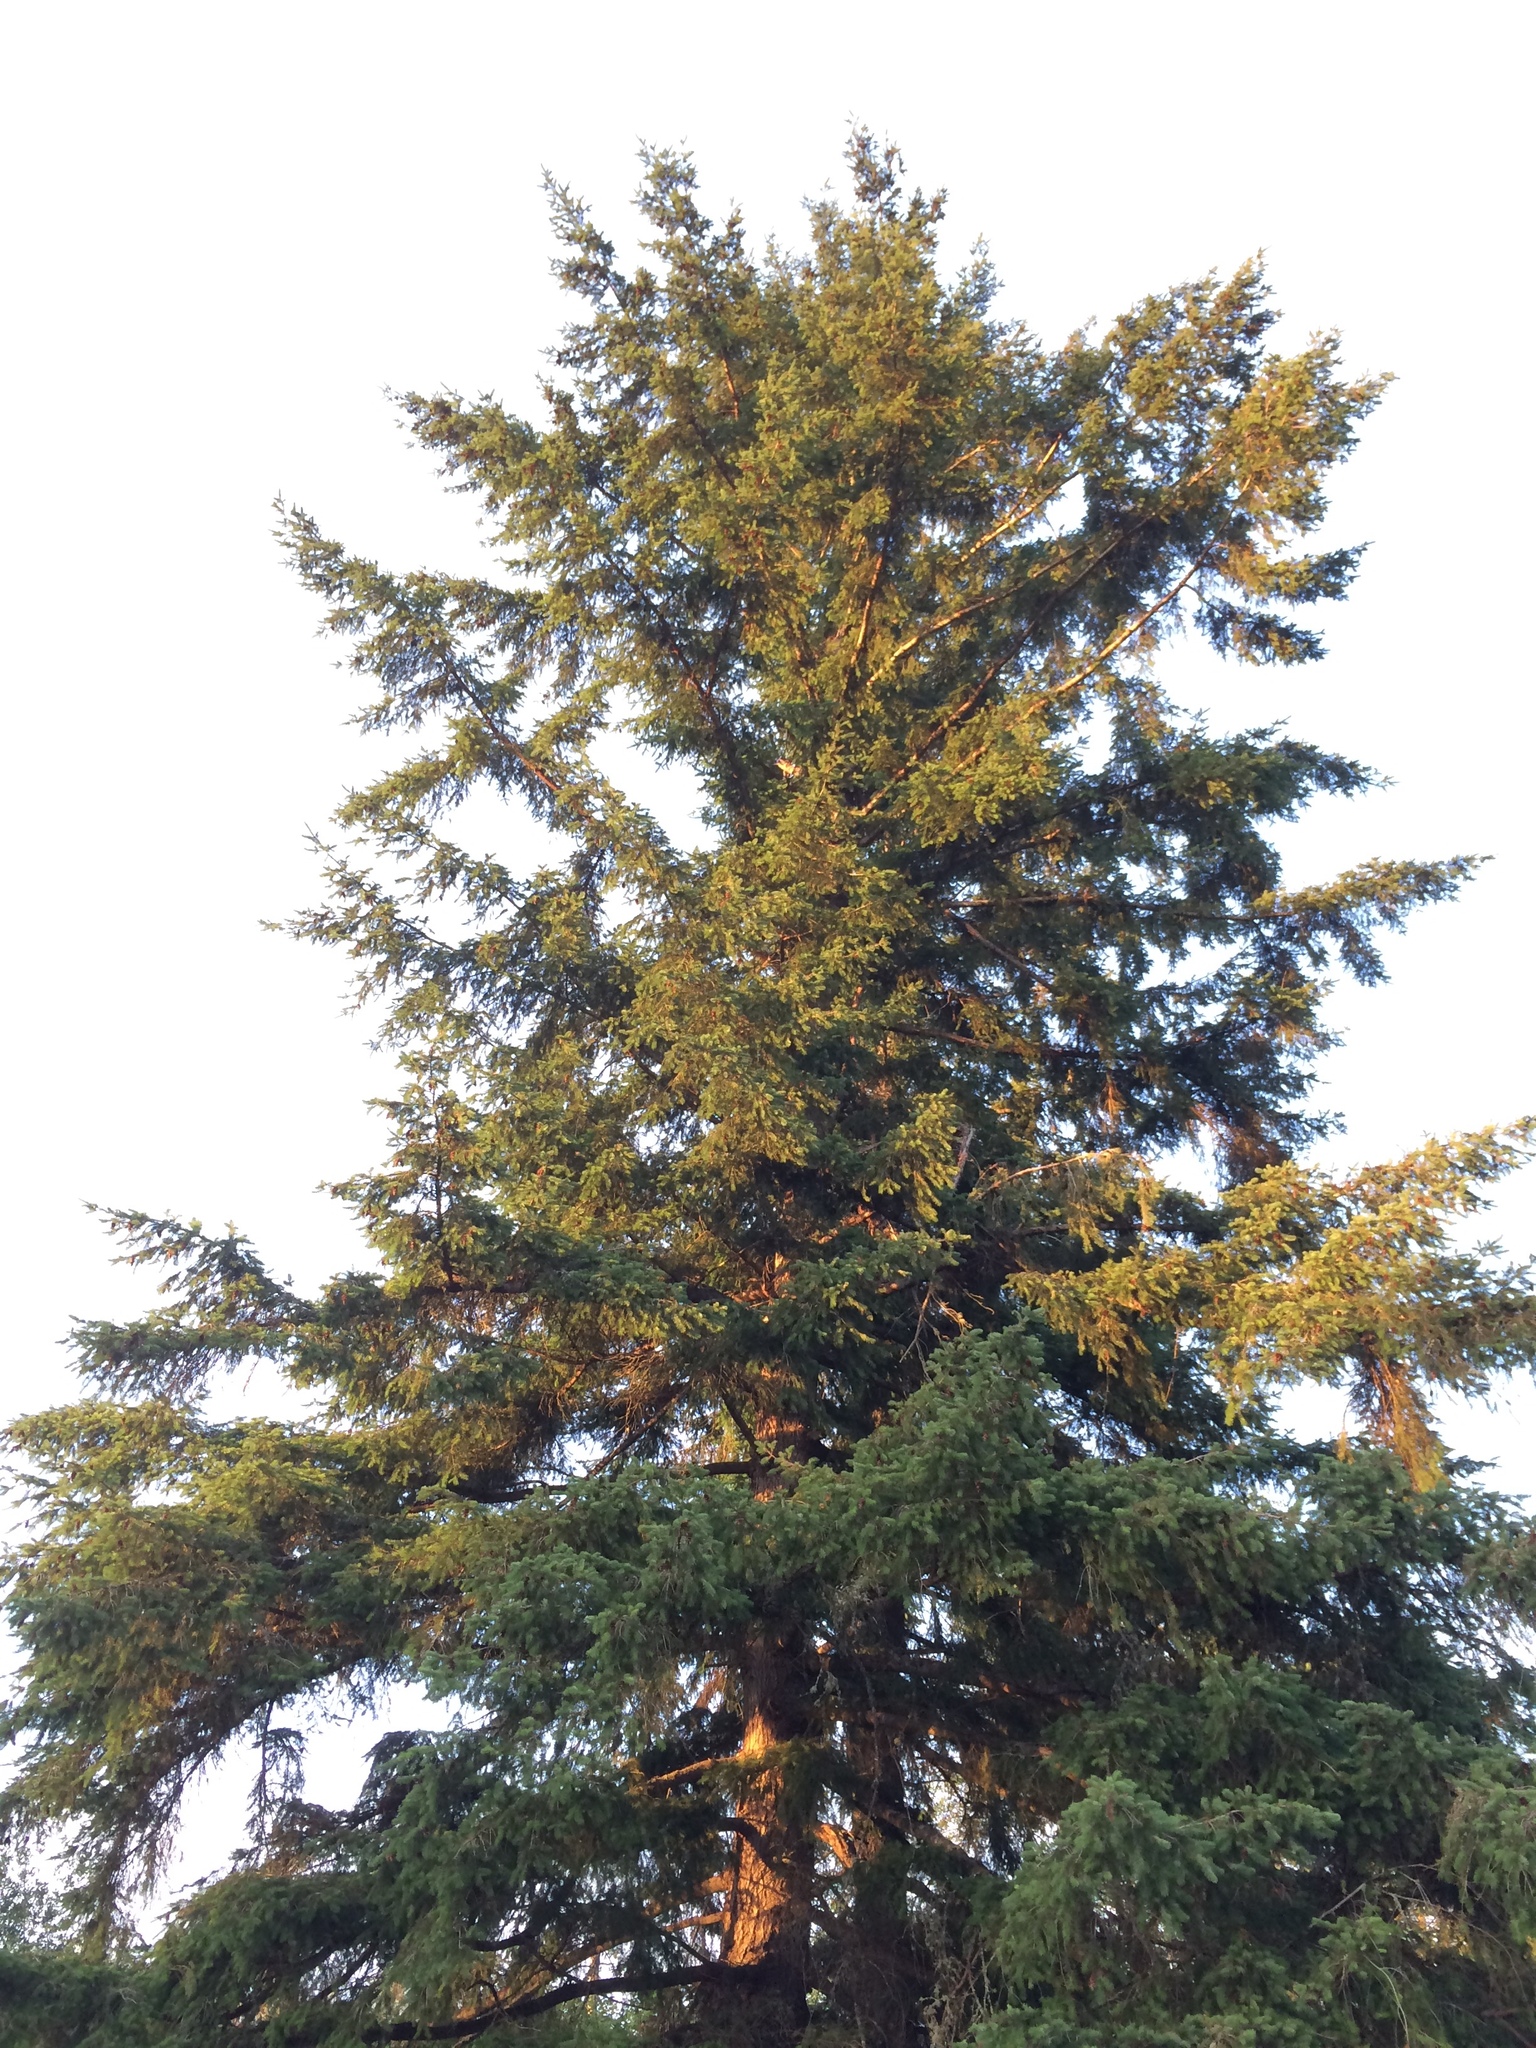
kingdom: Plantae
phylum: Tracheophyta
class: Pinopsida
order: Pinales
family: Pinaceae
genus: Pseudotsuga
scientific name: Pseudotsuga menziesii
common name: Douglas fir
